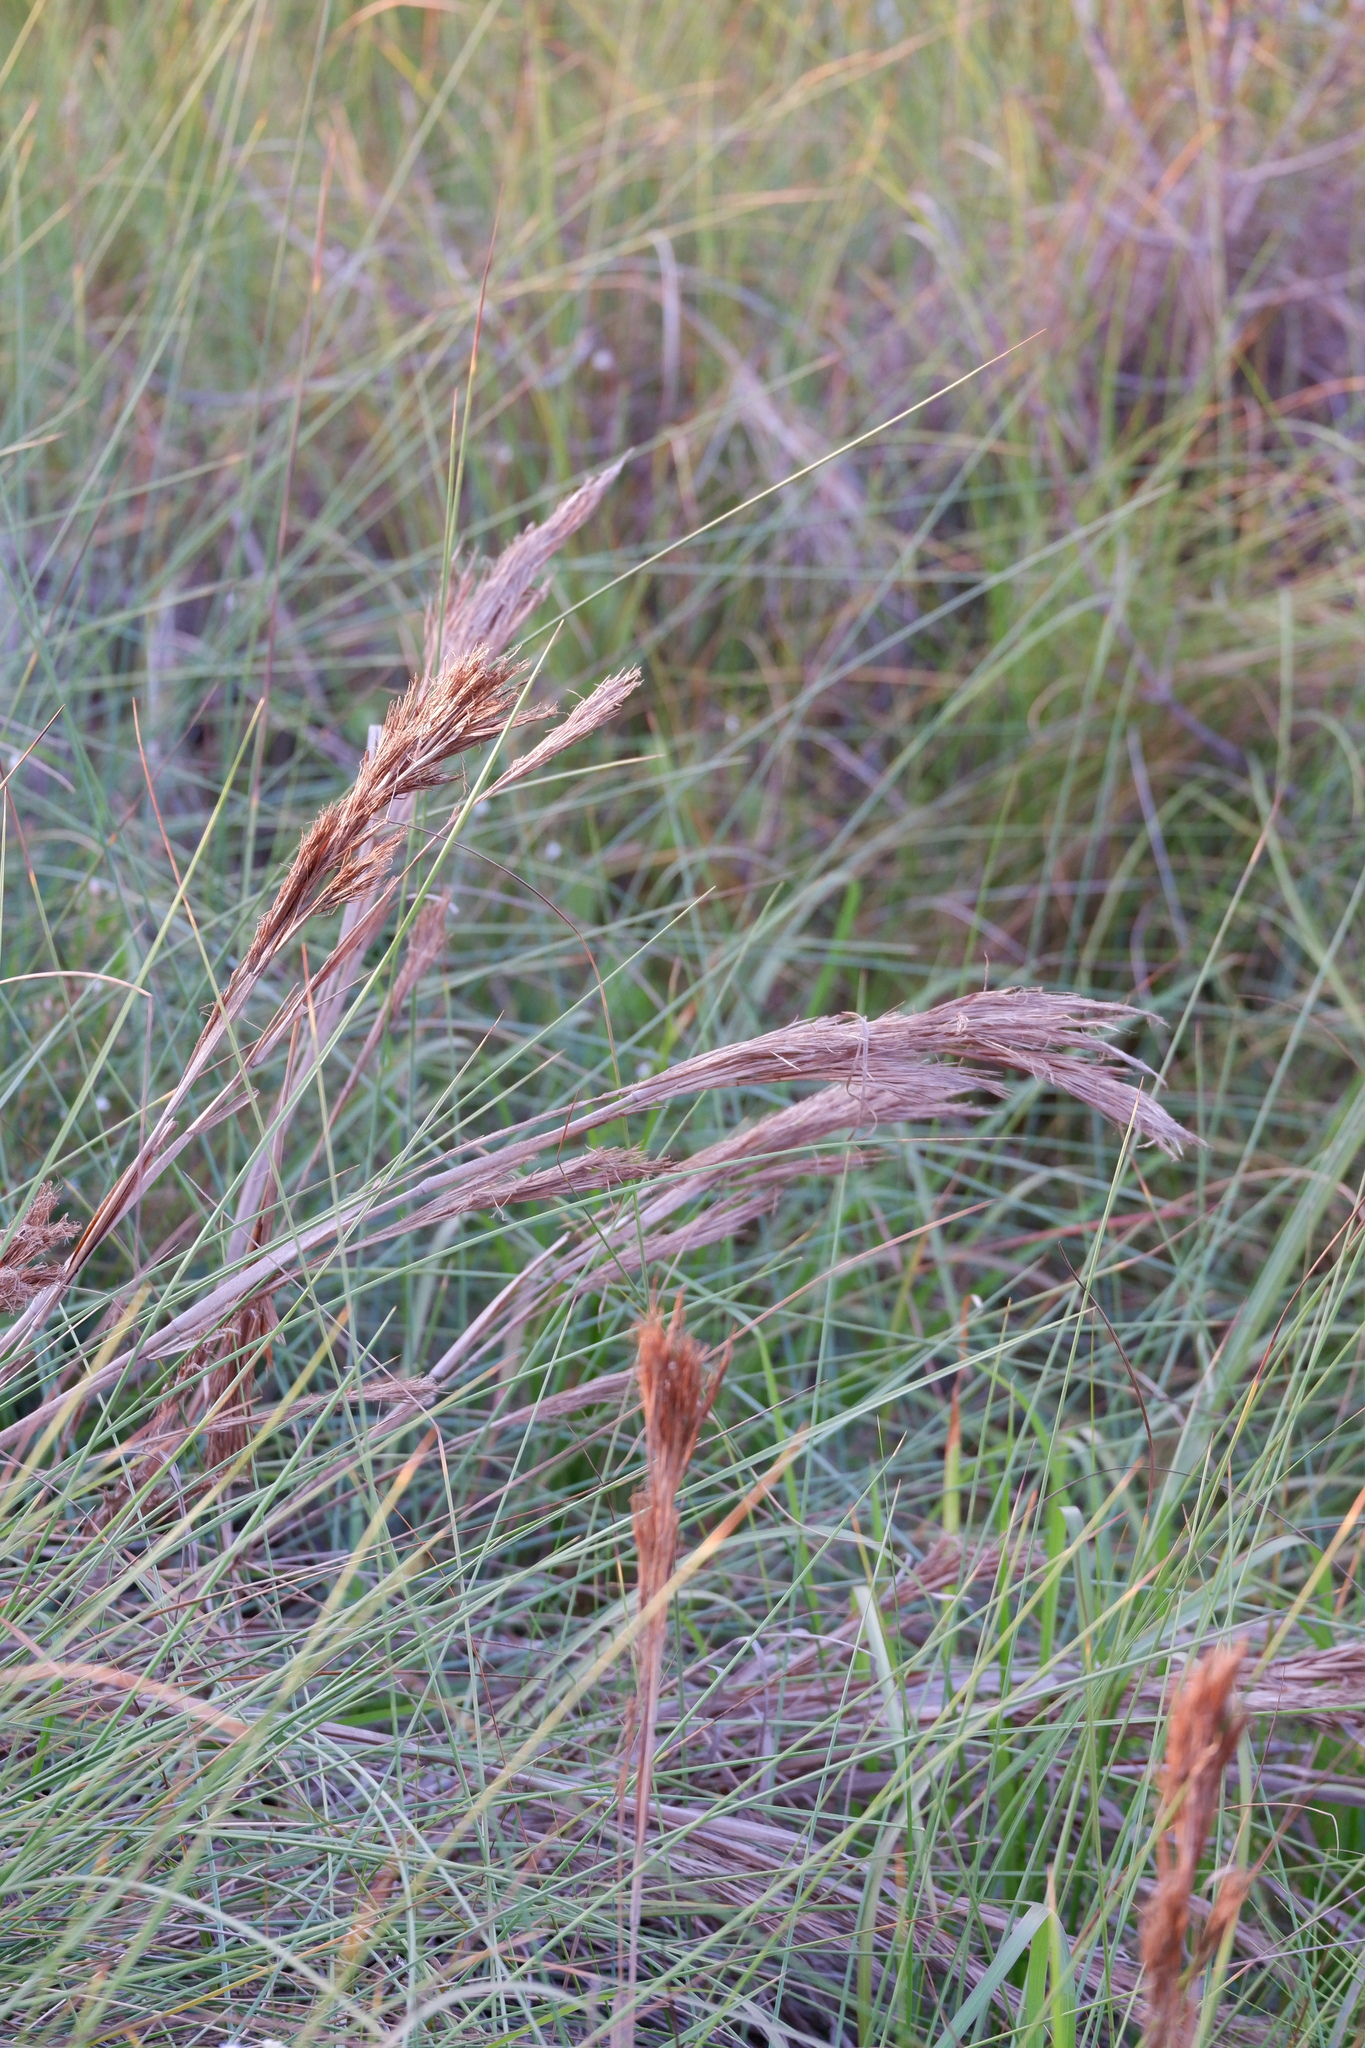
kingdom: Plantae
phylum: Tracheophyta
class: Liliopsida
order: Poales
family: Poaceae
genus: Andropogon
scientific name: Andropogon tenuispatheus
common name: Bushy bluestem
